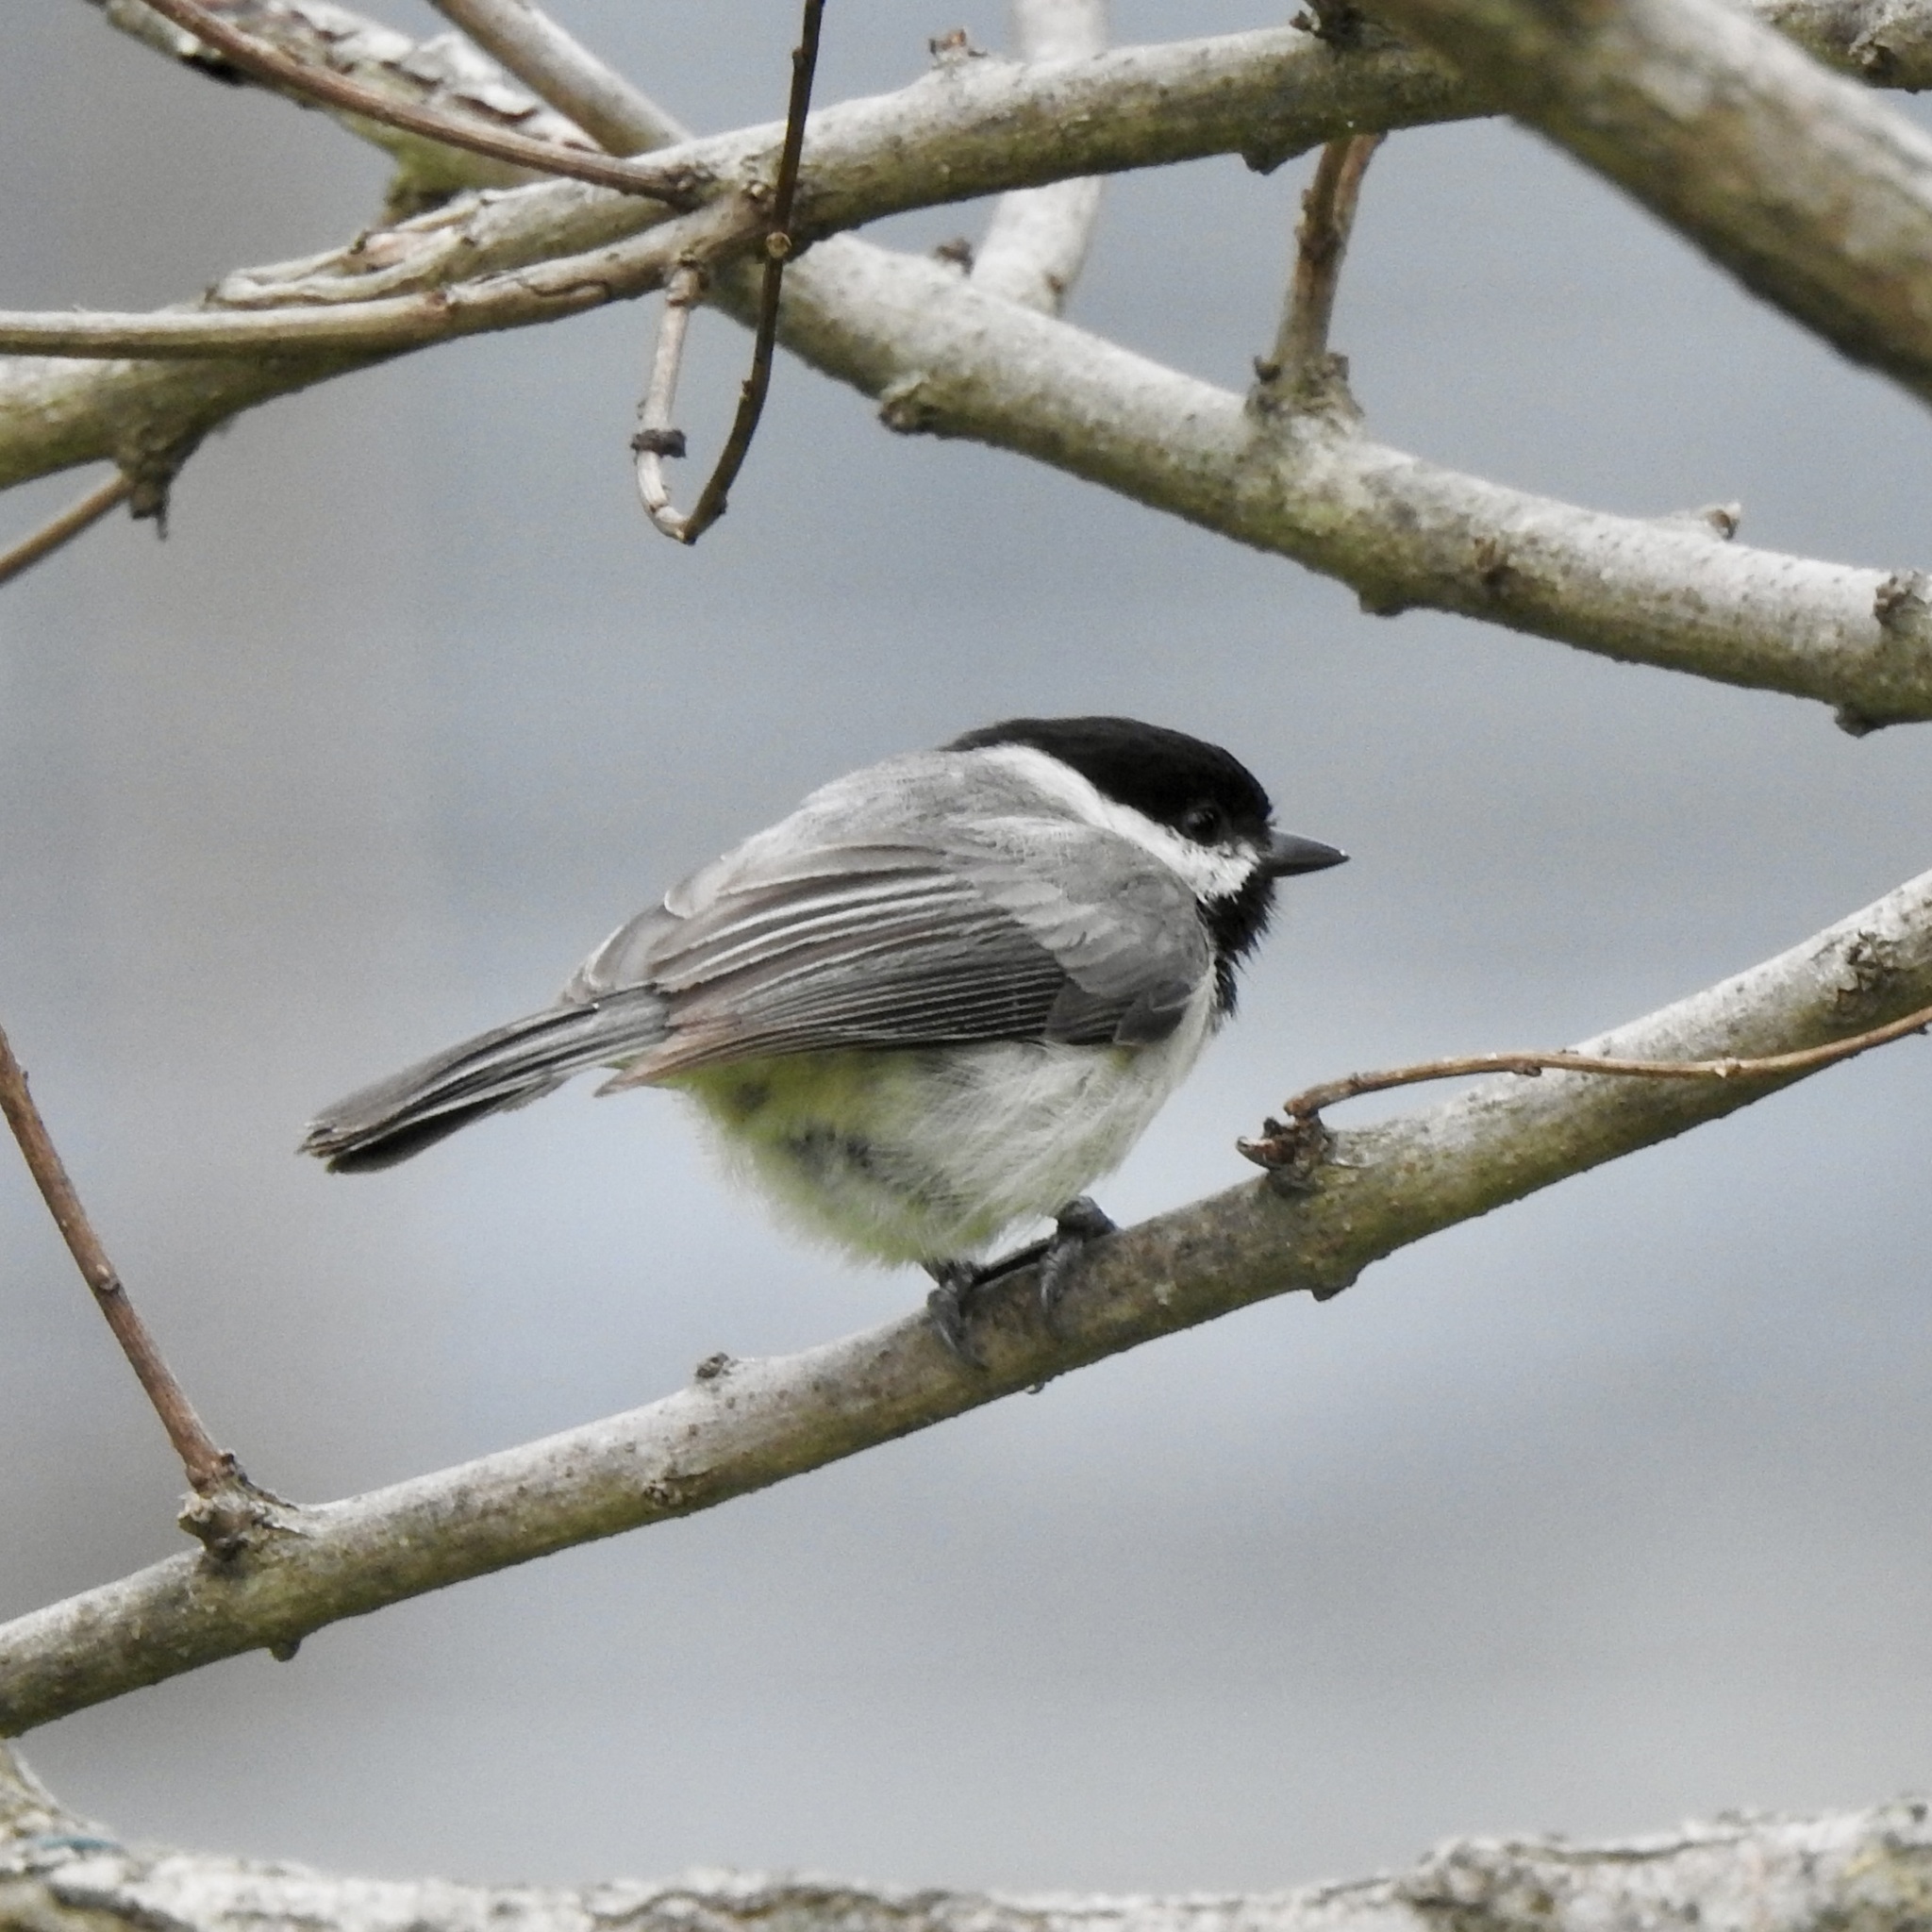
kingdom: Animalia
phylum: Chordata
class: Aves
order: Passeriformes
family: Paridae
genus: Poecile
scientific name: Poecile carolinensis
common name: Carolina chickadee
